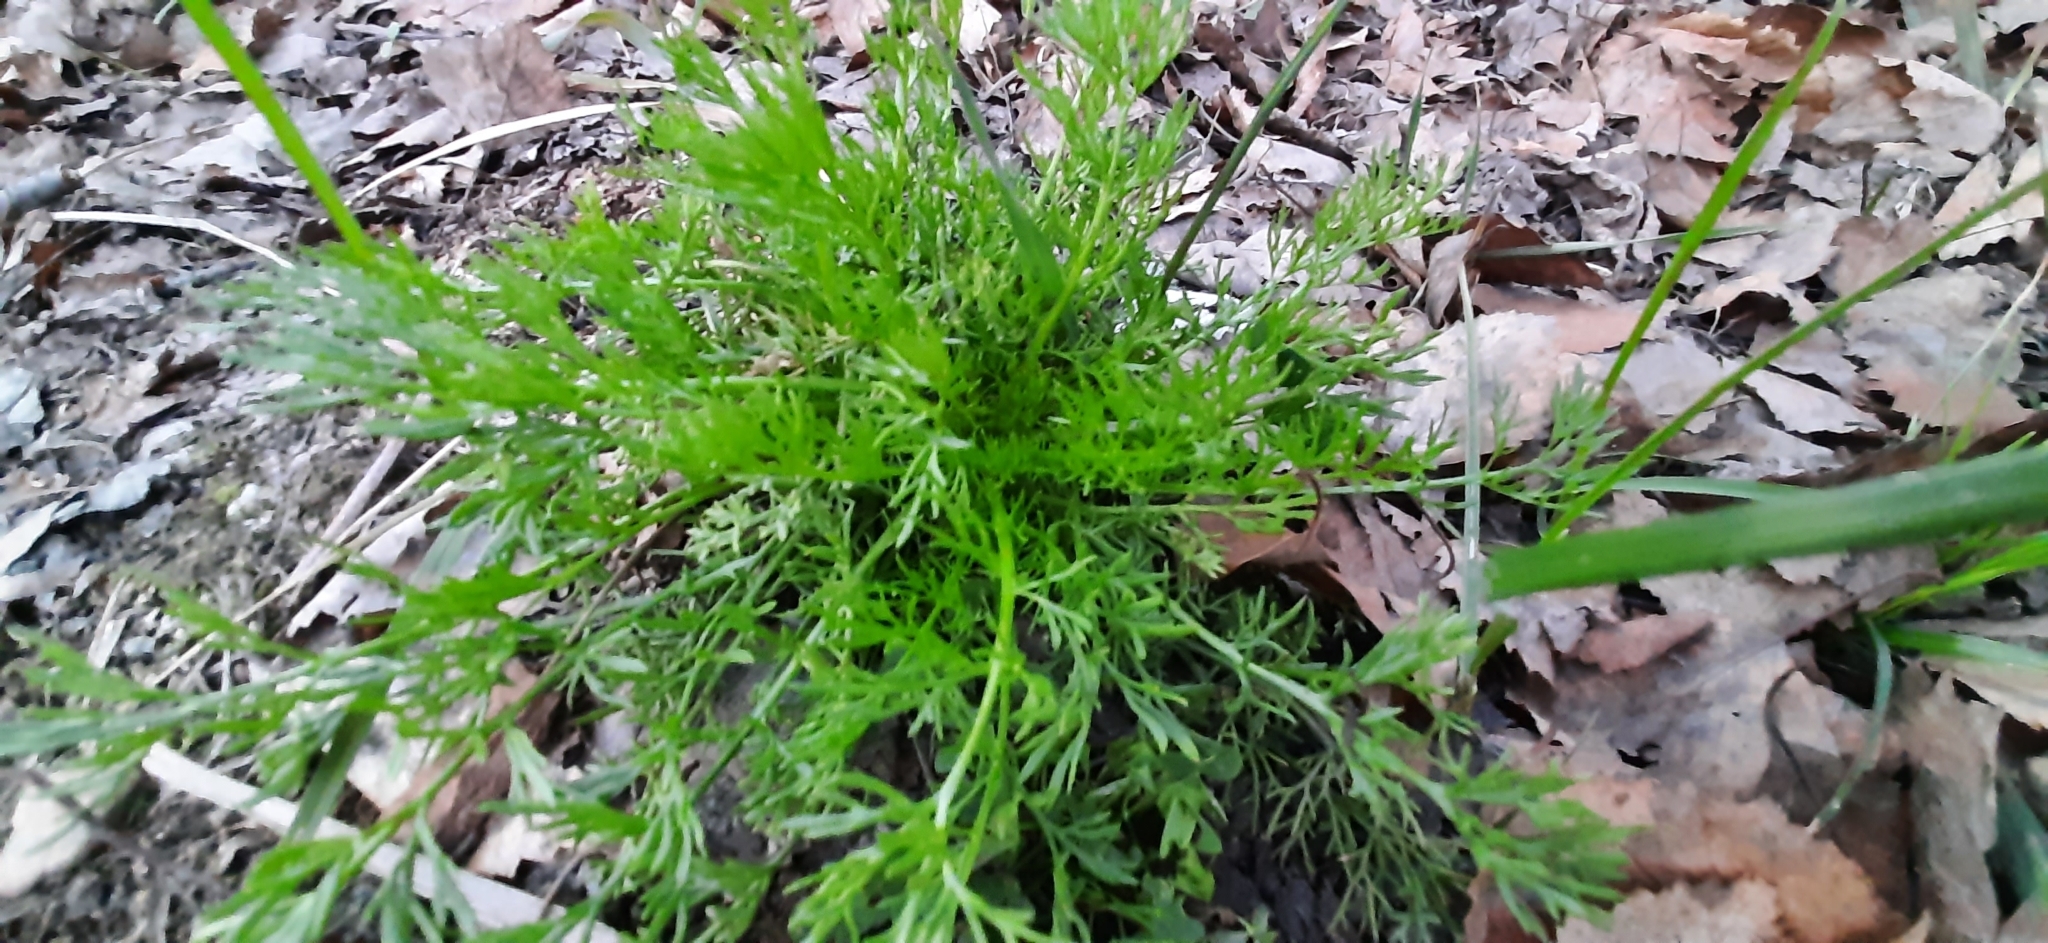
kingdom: Plantae
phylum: Tracheophyta
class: Magnoliopsida
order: Asterales
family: Asteraceae
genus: Tripleurospermum
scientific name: Tripleurospermum inodorum
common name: Scentless mayweed
